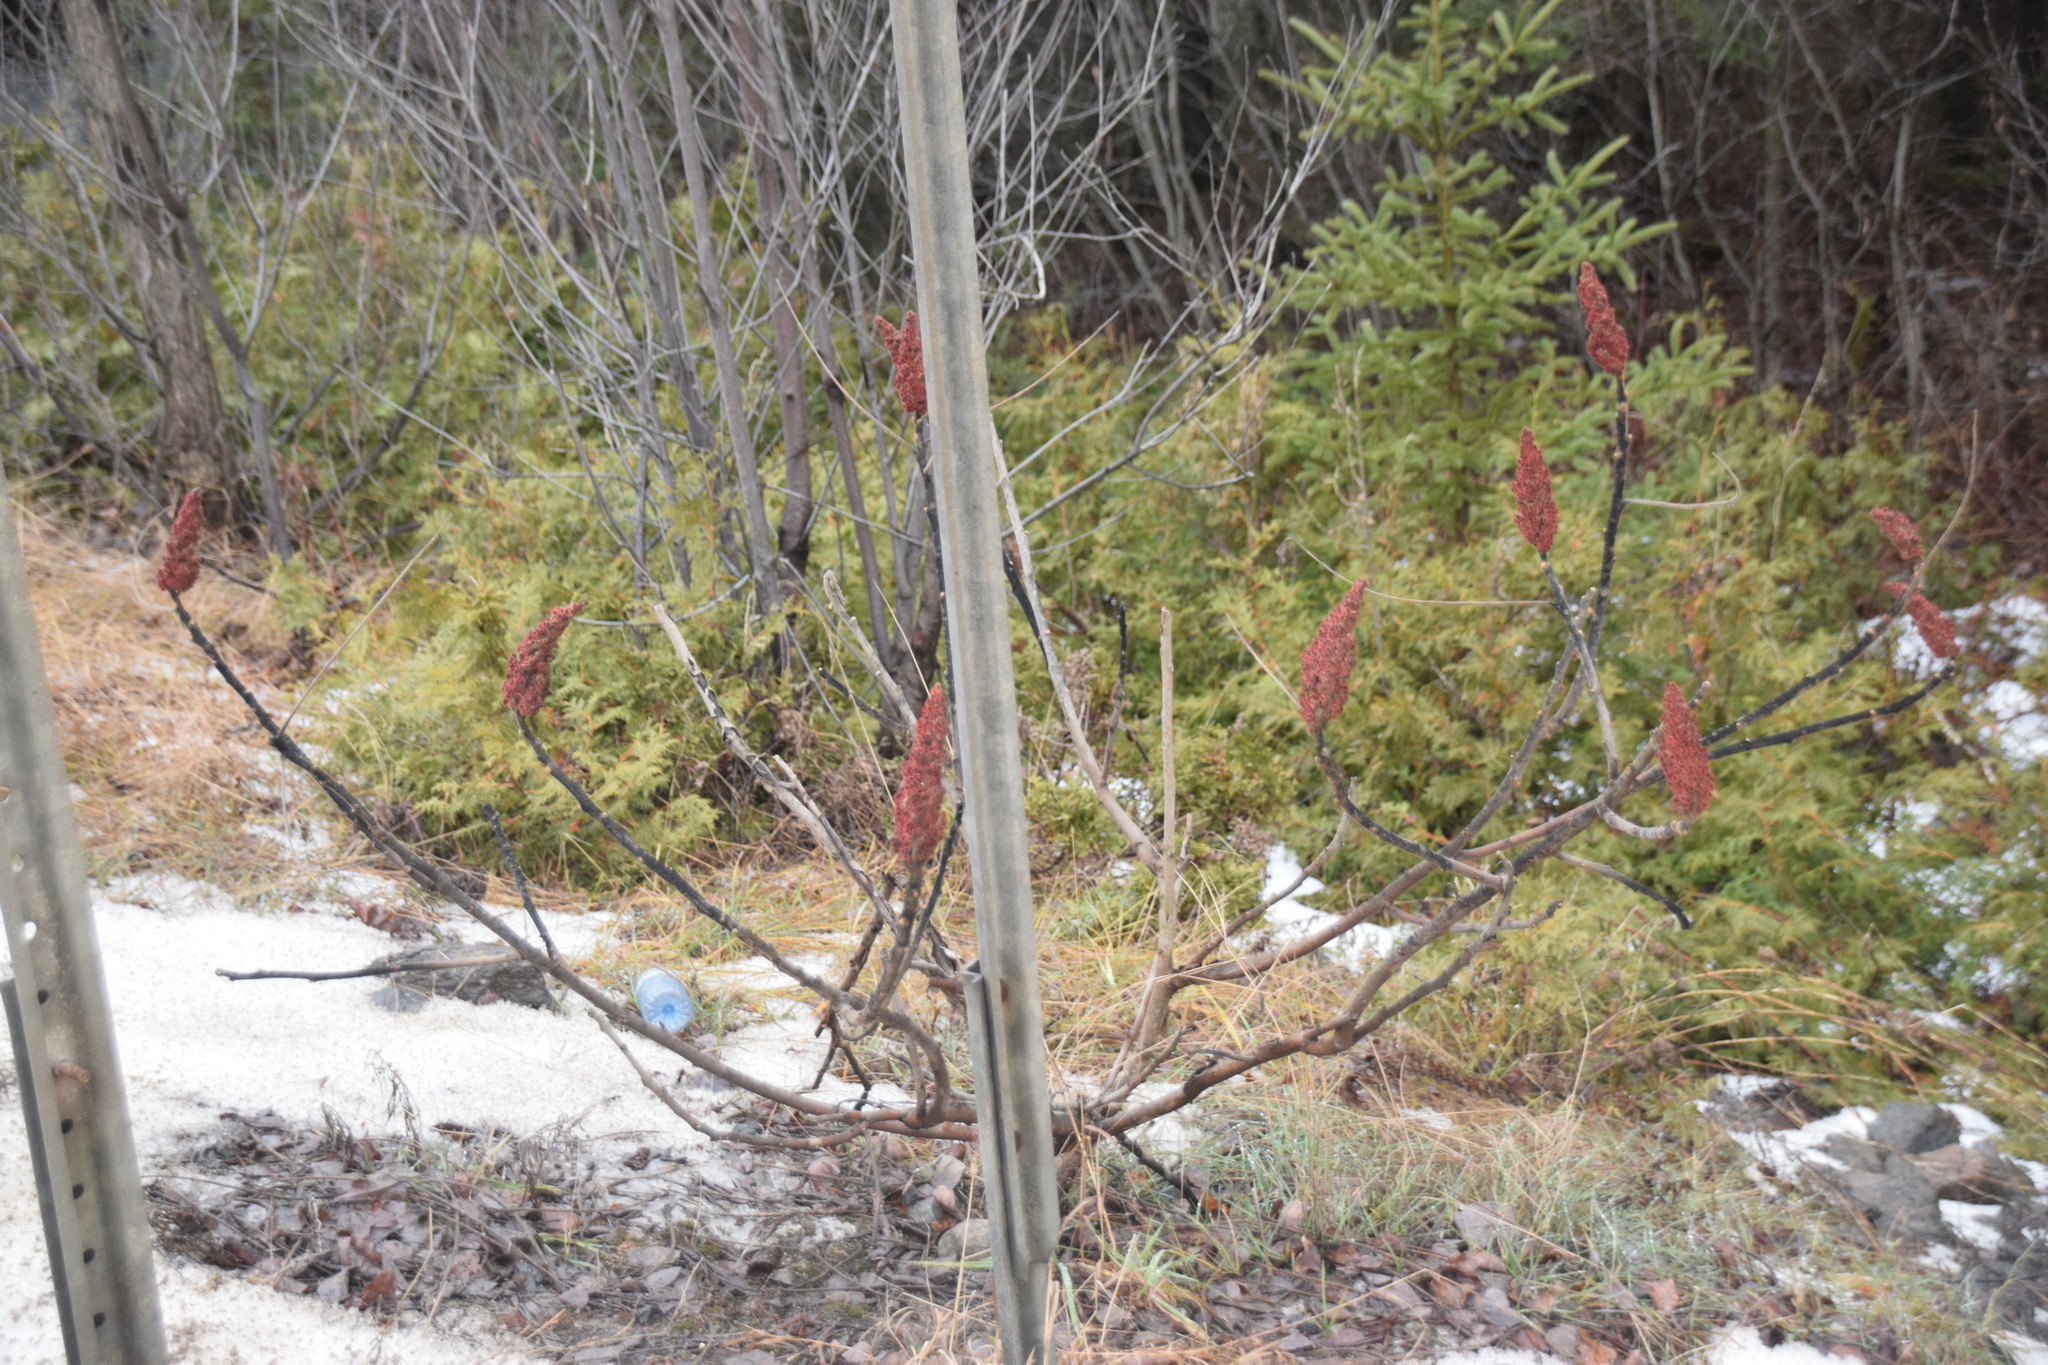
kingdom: Plantae
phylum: Tracheophyta
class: Magnoliopsida
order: Sapindales
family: Anacardiaceae
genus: Rhus
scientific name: Rhus typhina
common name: Staghorn sumac
